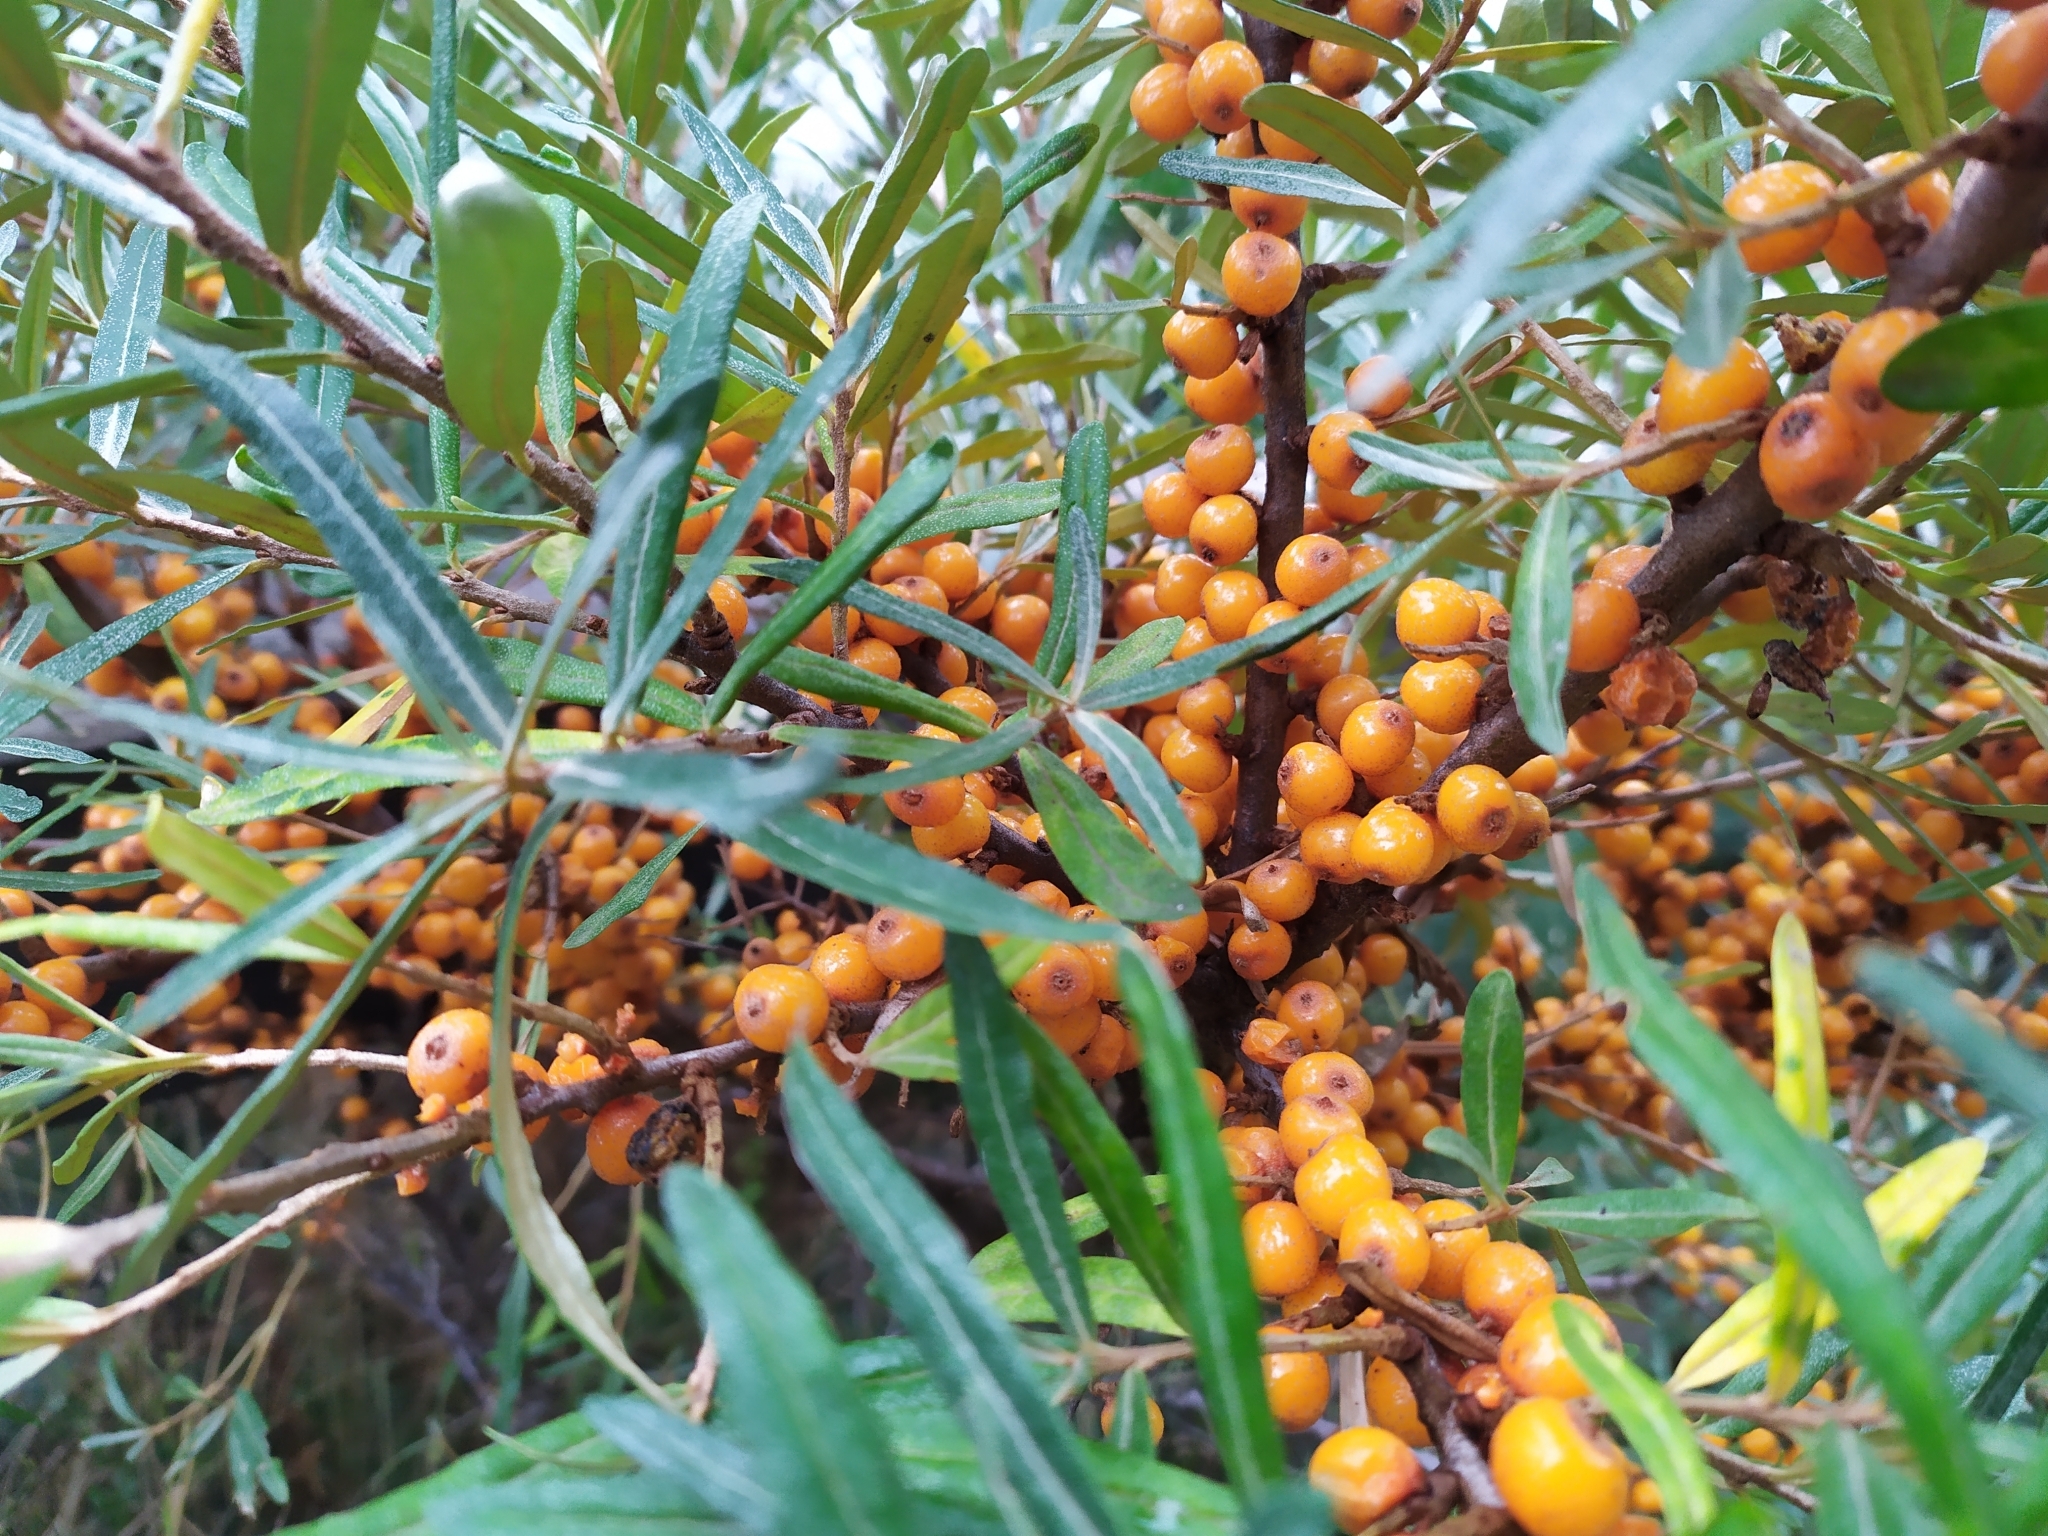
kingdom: Plantae
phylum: Tracheophyta
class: Magnoliopsida
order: Rosales
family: Elaeagnaceae
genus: Hippophae
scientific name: Hippophae rhamnoides
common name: Sea-buckthorn
